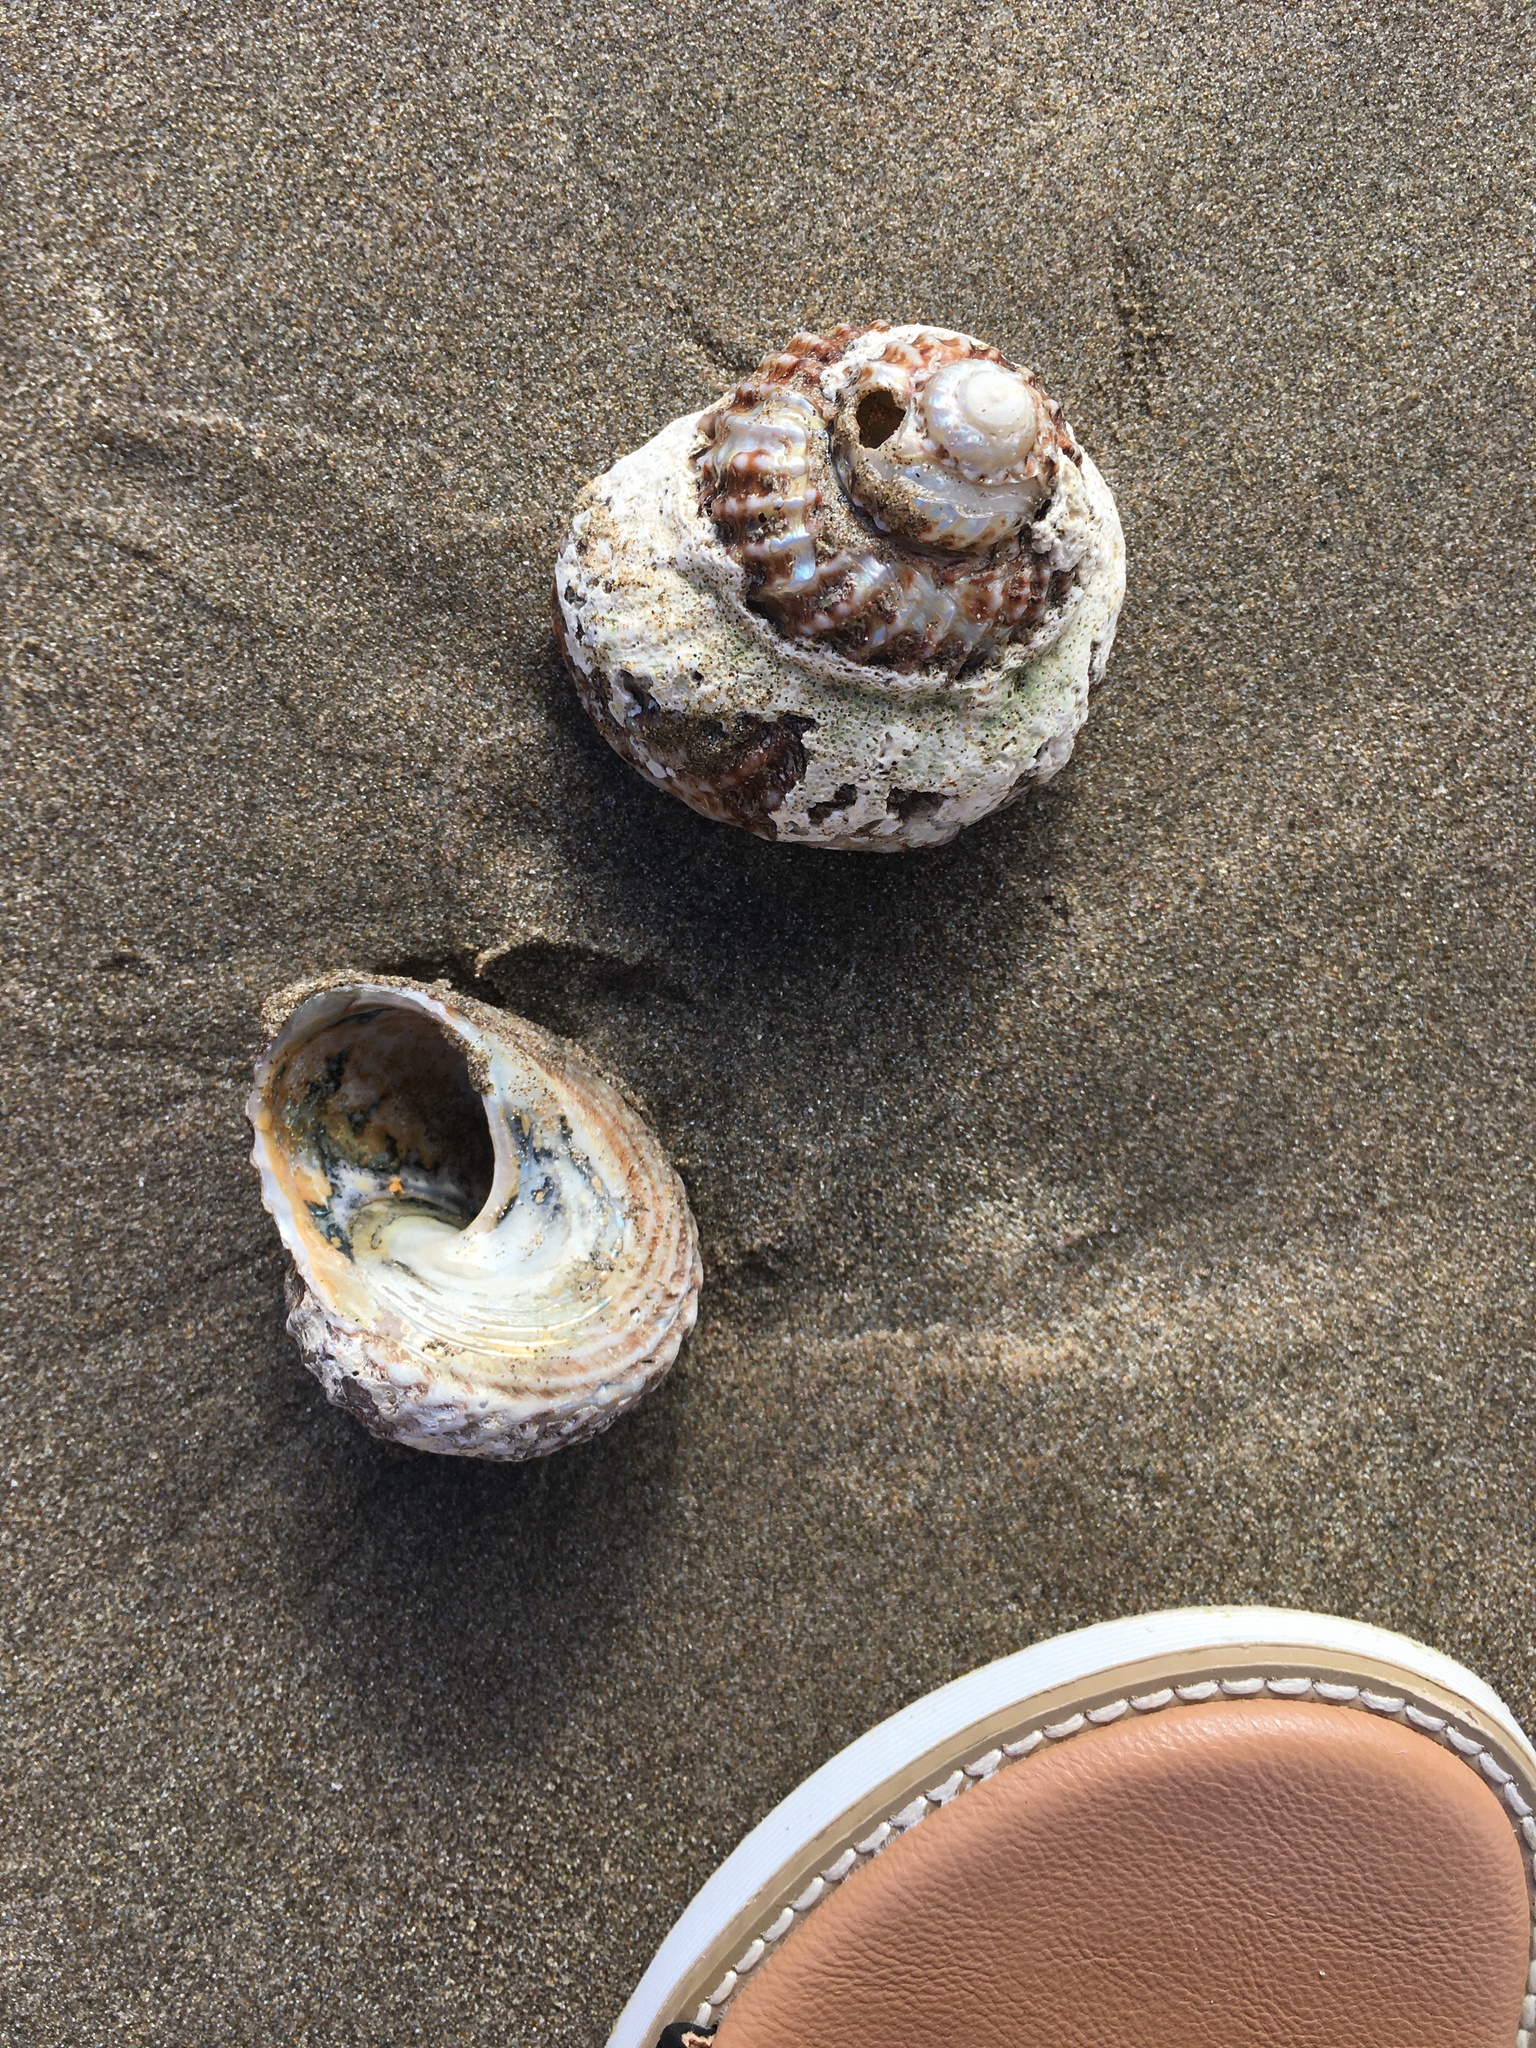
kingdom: Animalia
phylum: Mollusca
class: Gastropoda
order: Trochida
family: Turbinidae
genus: Cookia
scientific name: Cookia sulcata
